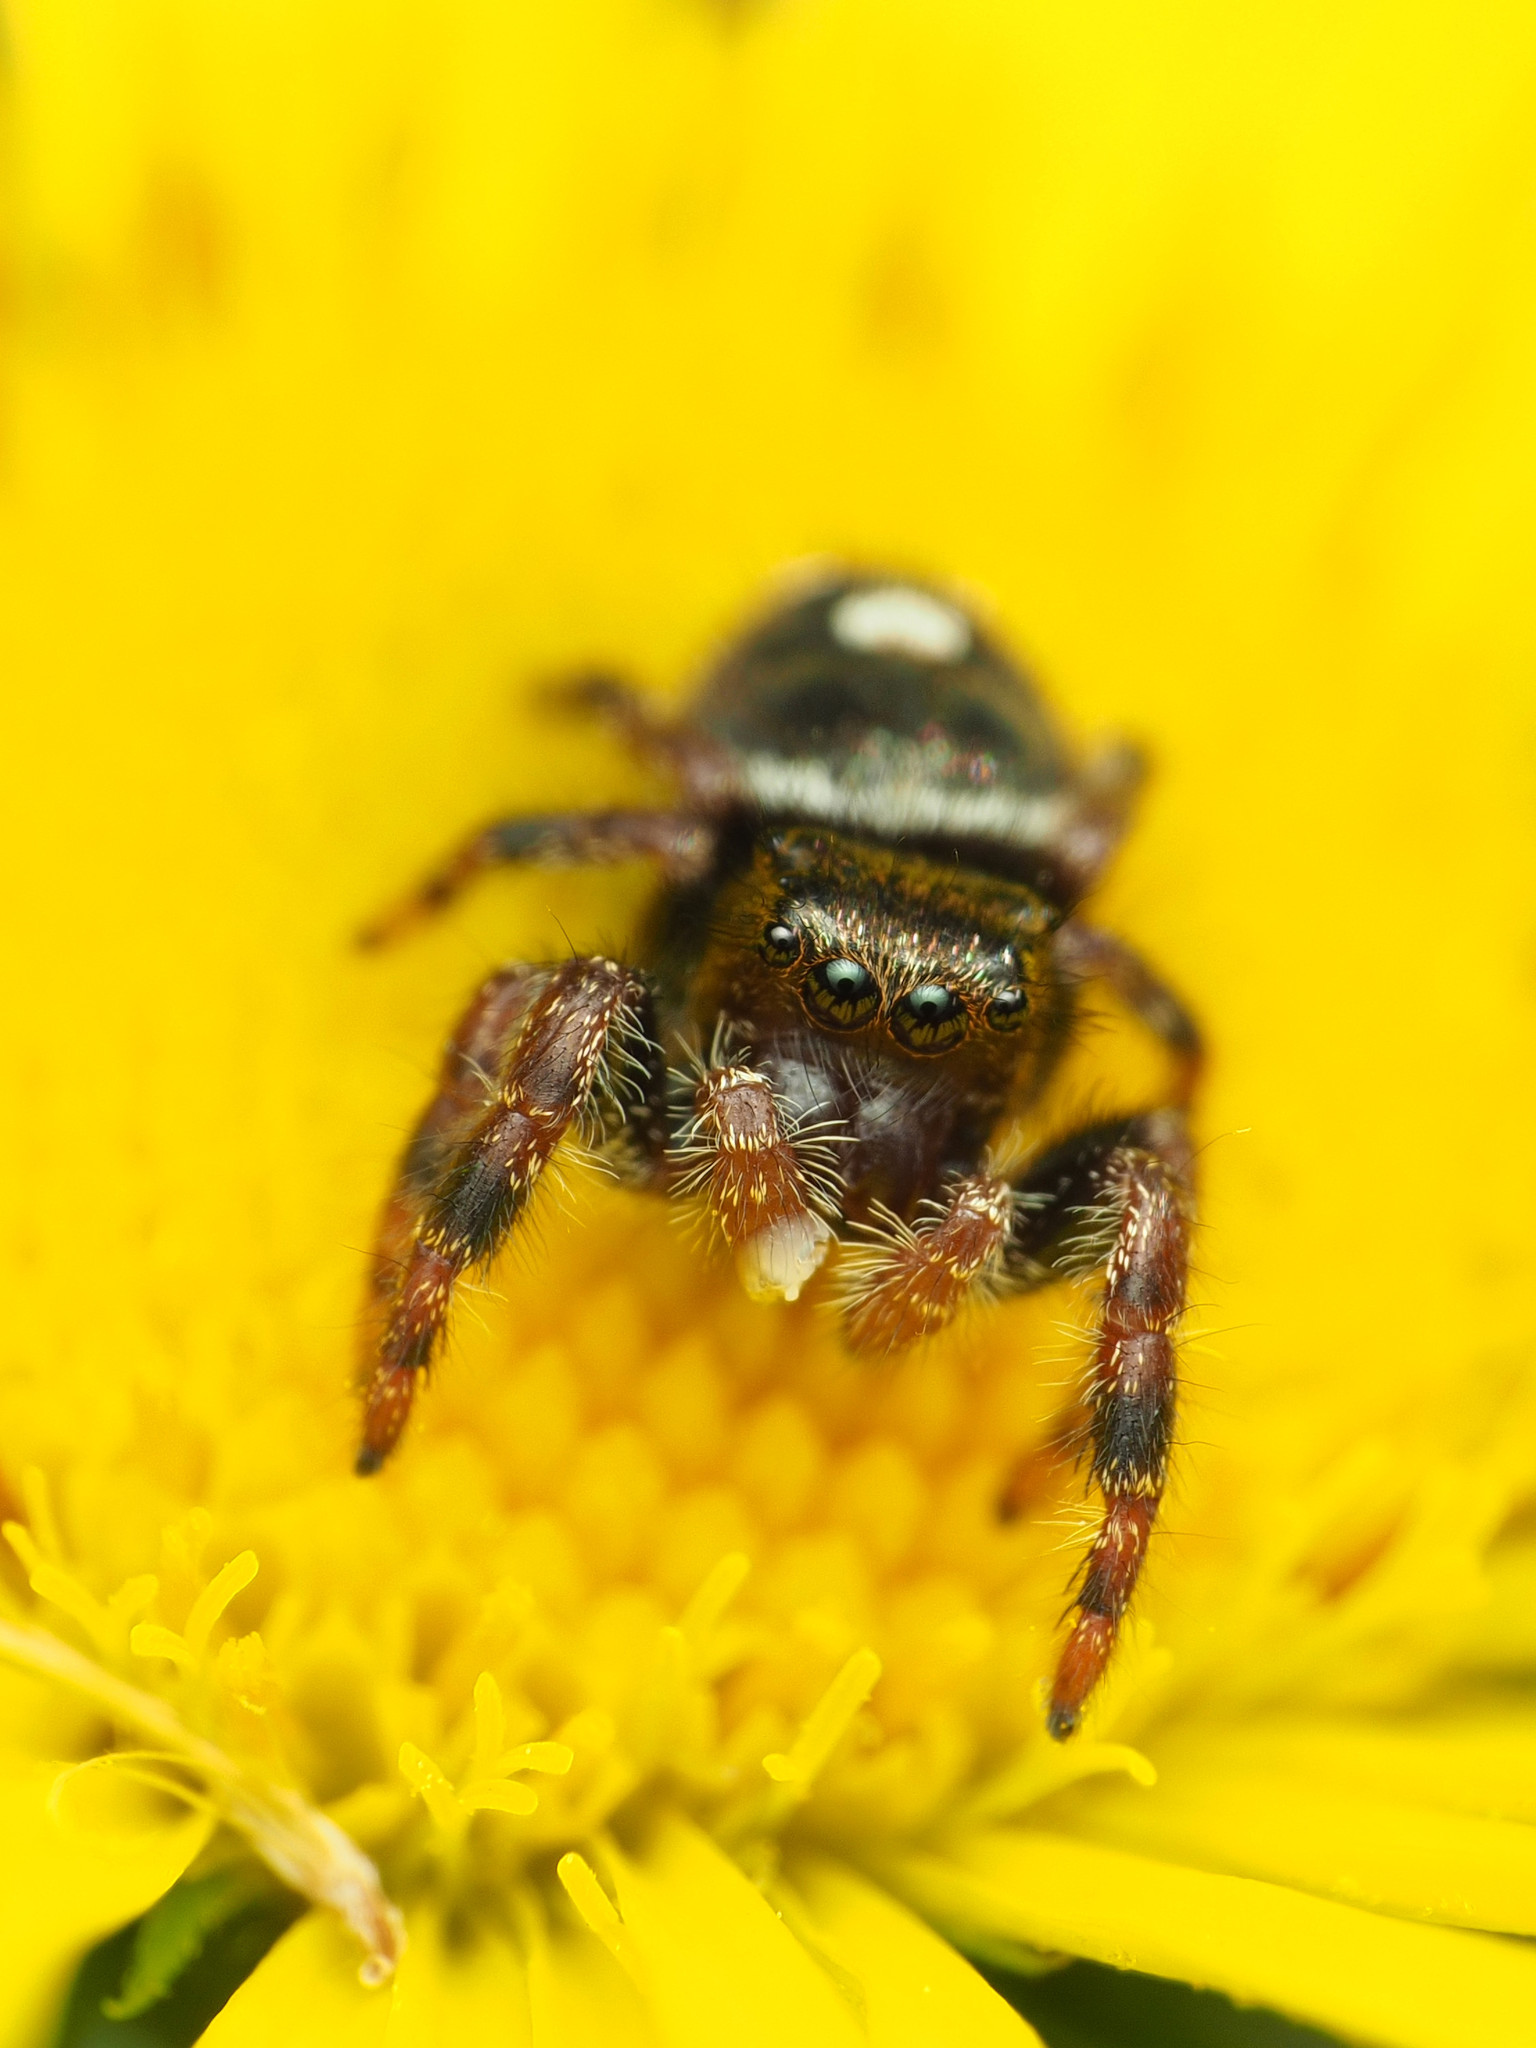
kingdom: Animalia
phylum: Arthropoda
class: Arachnida
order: Araneae
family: Salticidae
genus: Phidippus
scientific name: Phidippus audax
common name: Bold jumper
